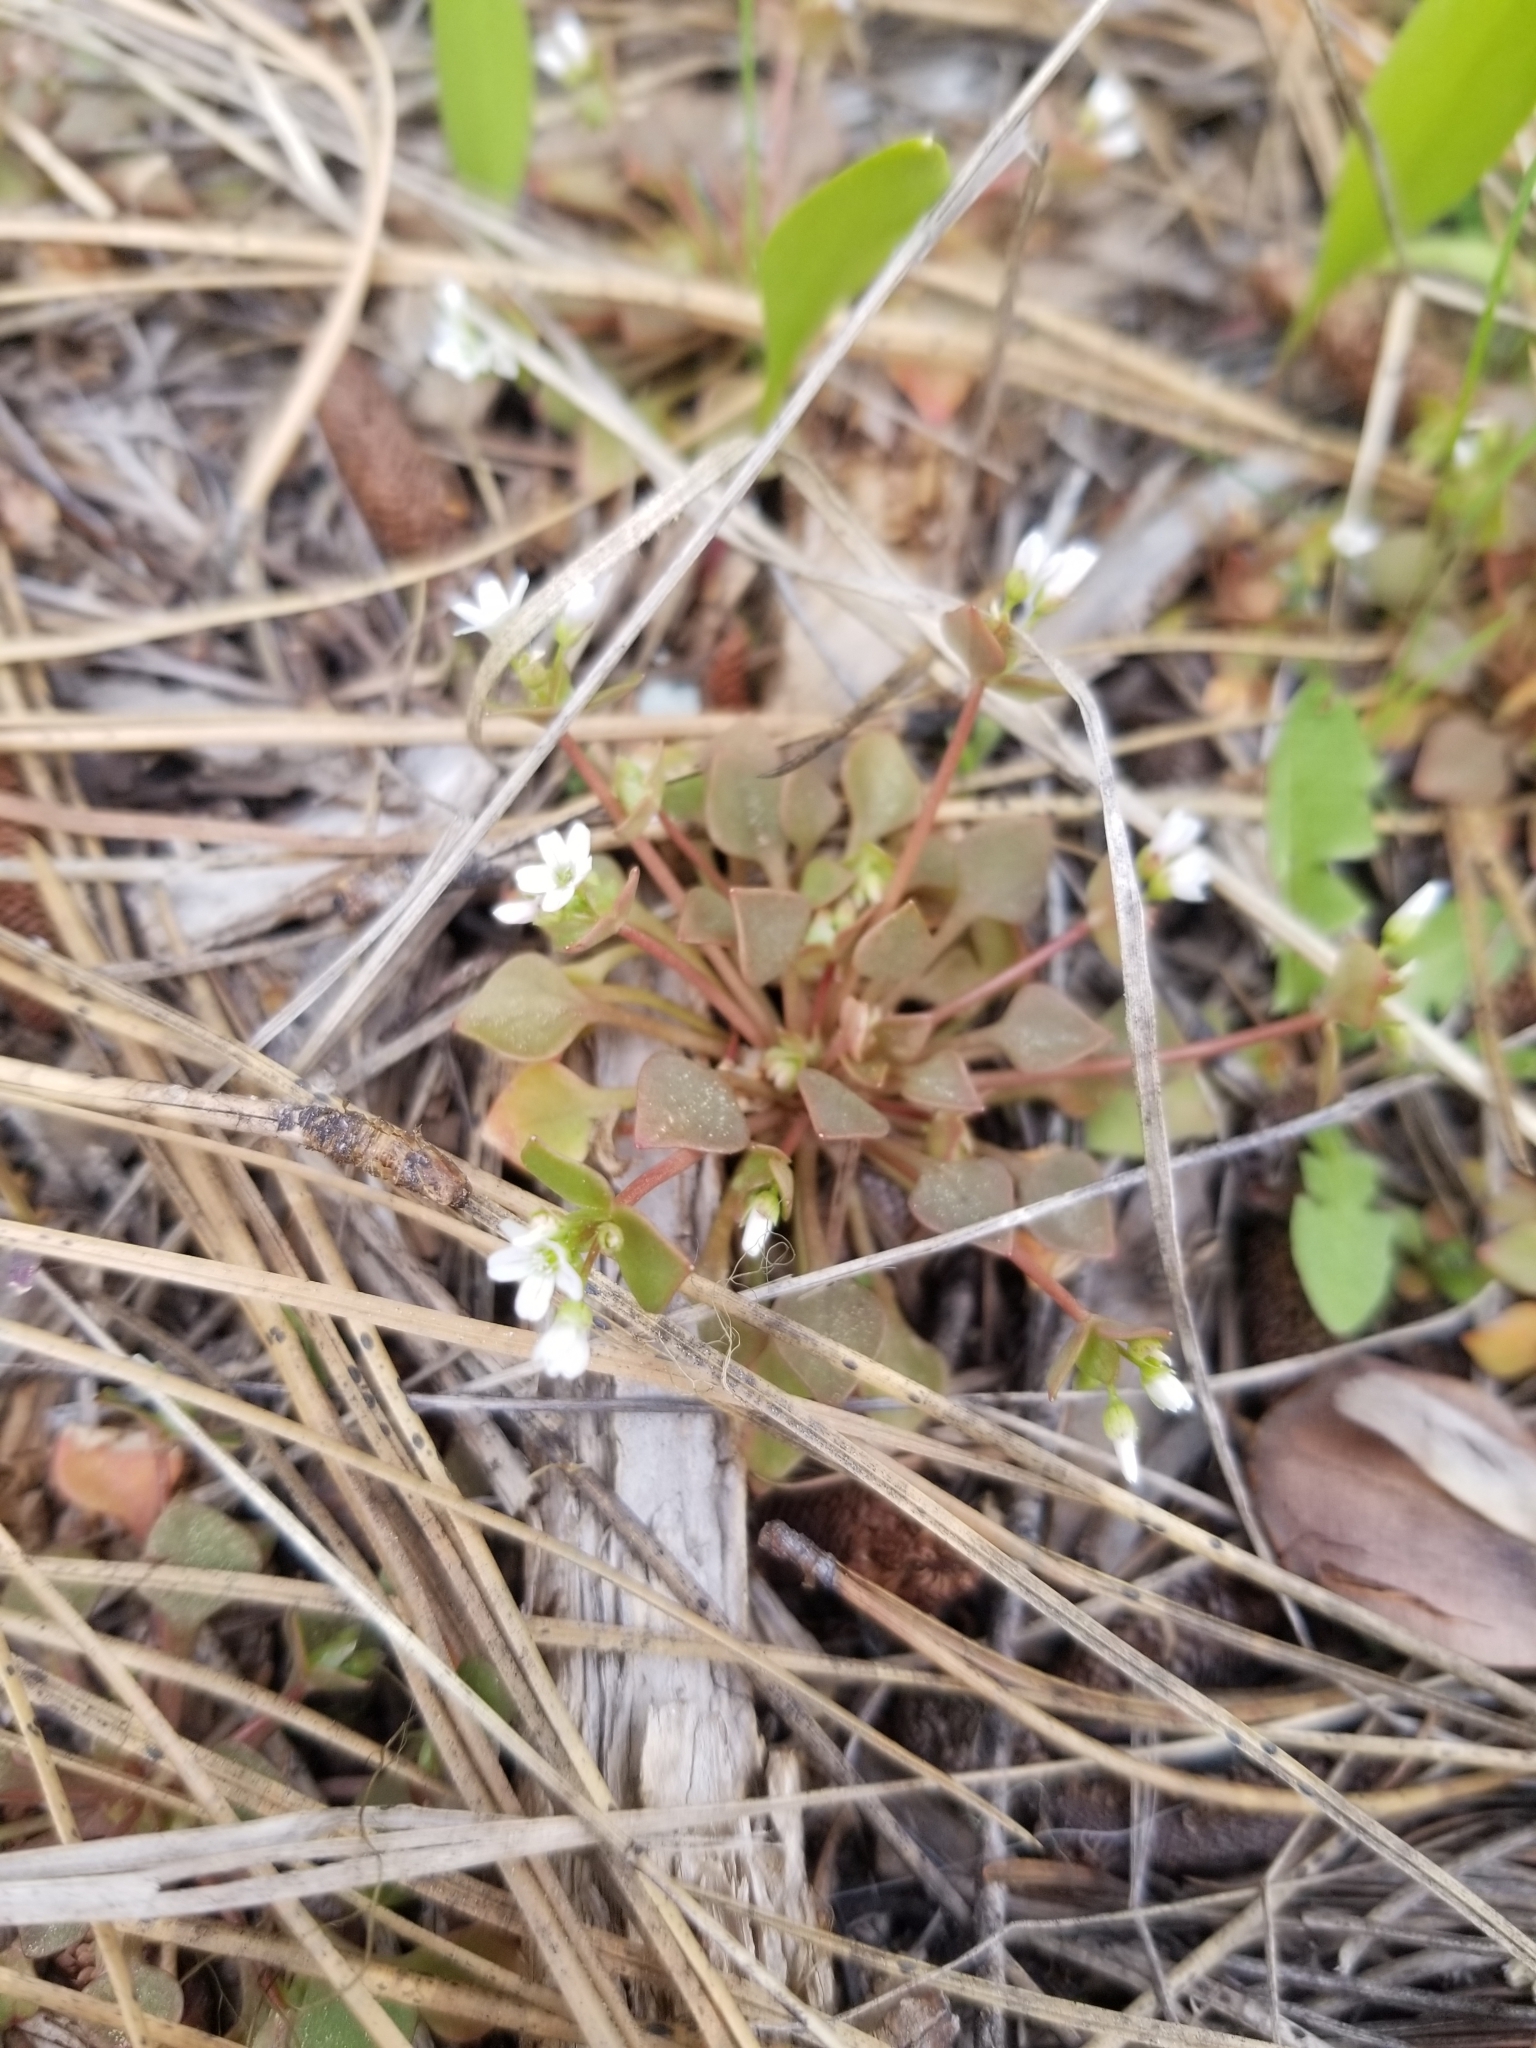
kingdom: Plantae
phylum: Tracheophyta
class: Magnoliopsida
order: Caryophyllales
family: Montiaceae
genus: Claytonia
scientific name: Claytonia rubra
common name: Erubescent miner's-lettuce
